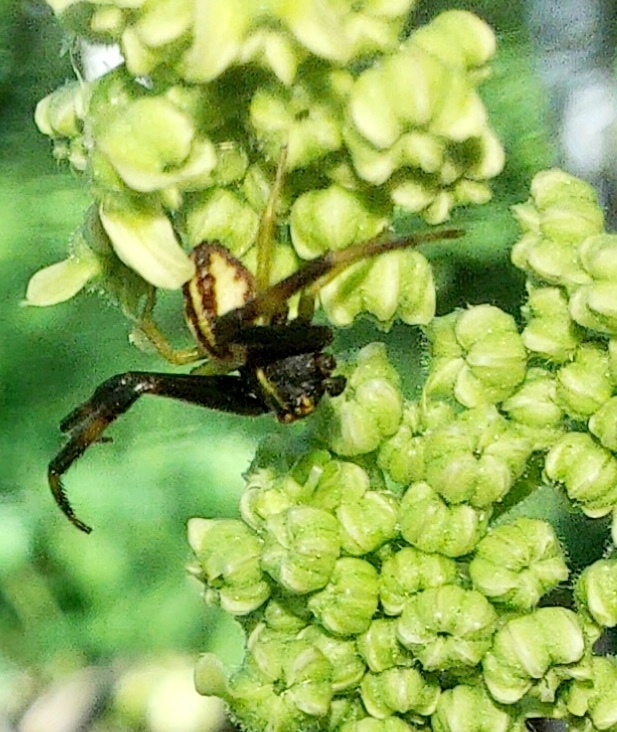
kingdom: Animalia
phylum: Arthropoda
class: Arachnida
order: Araneae
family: Thomisidae
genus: Misumena
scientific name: Misumena vatia
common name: Goldenrod crab spider
